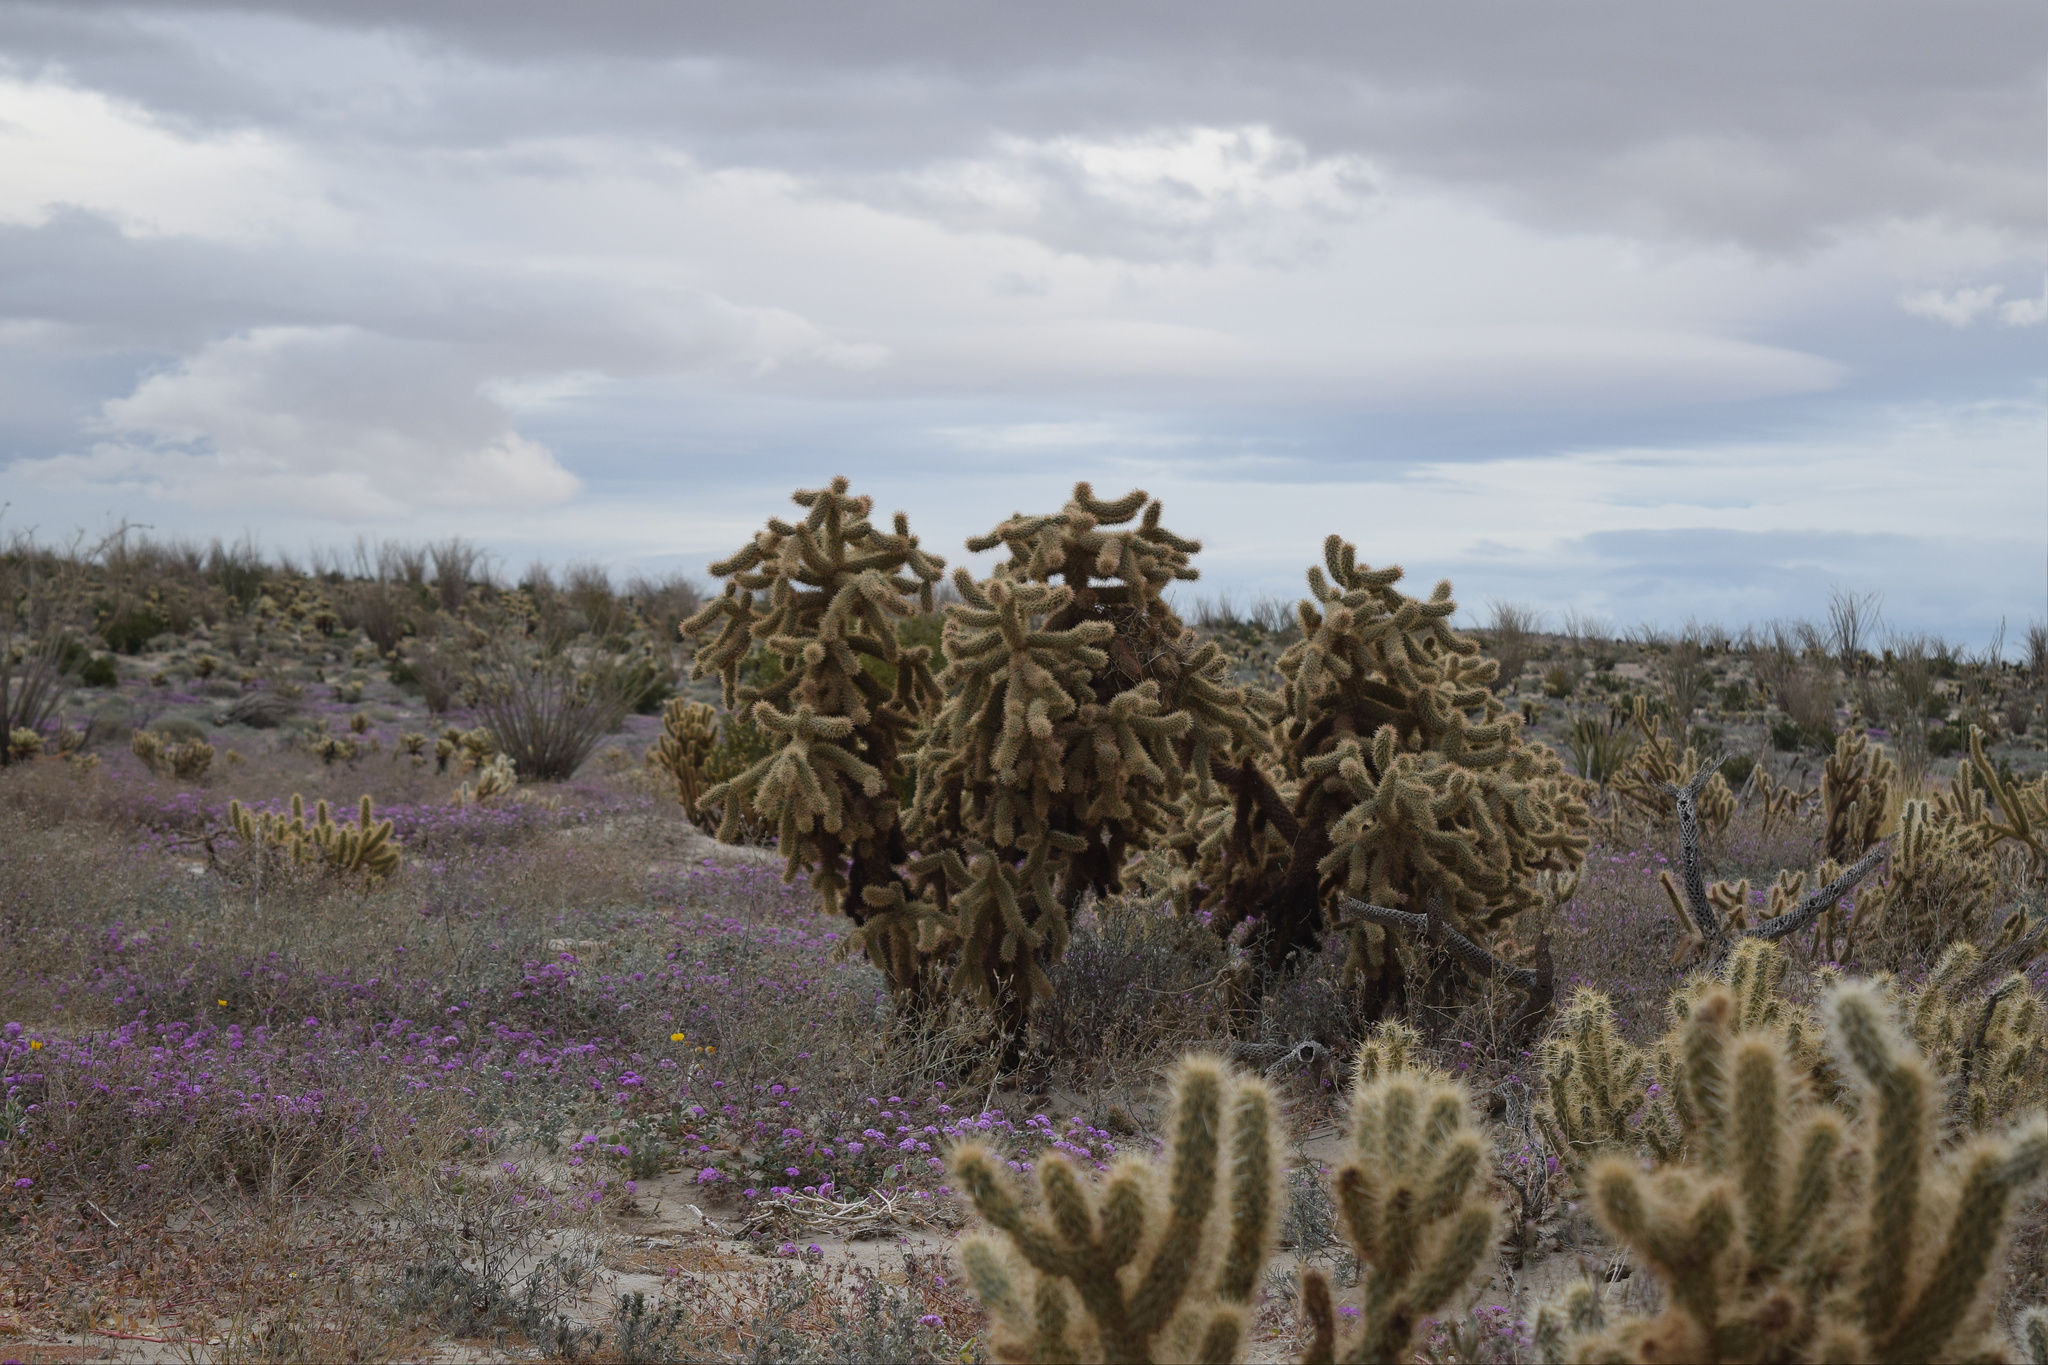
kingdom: Plantae
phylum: Tracheophyta
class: Magnoliopsida
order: Caryophyllales
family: Cactaceae
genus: Cylindropuntia
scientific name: Cylindropuntia fosbergii
